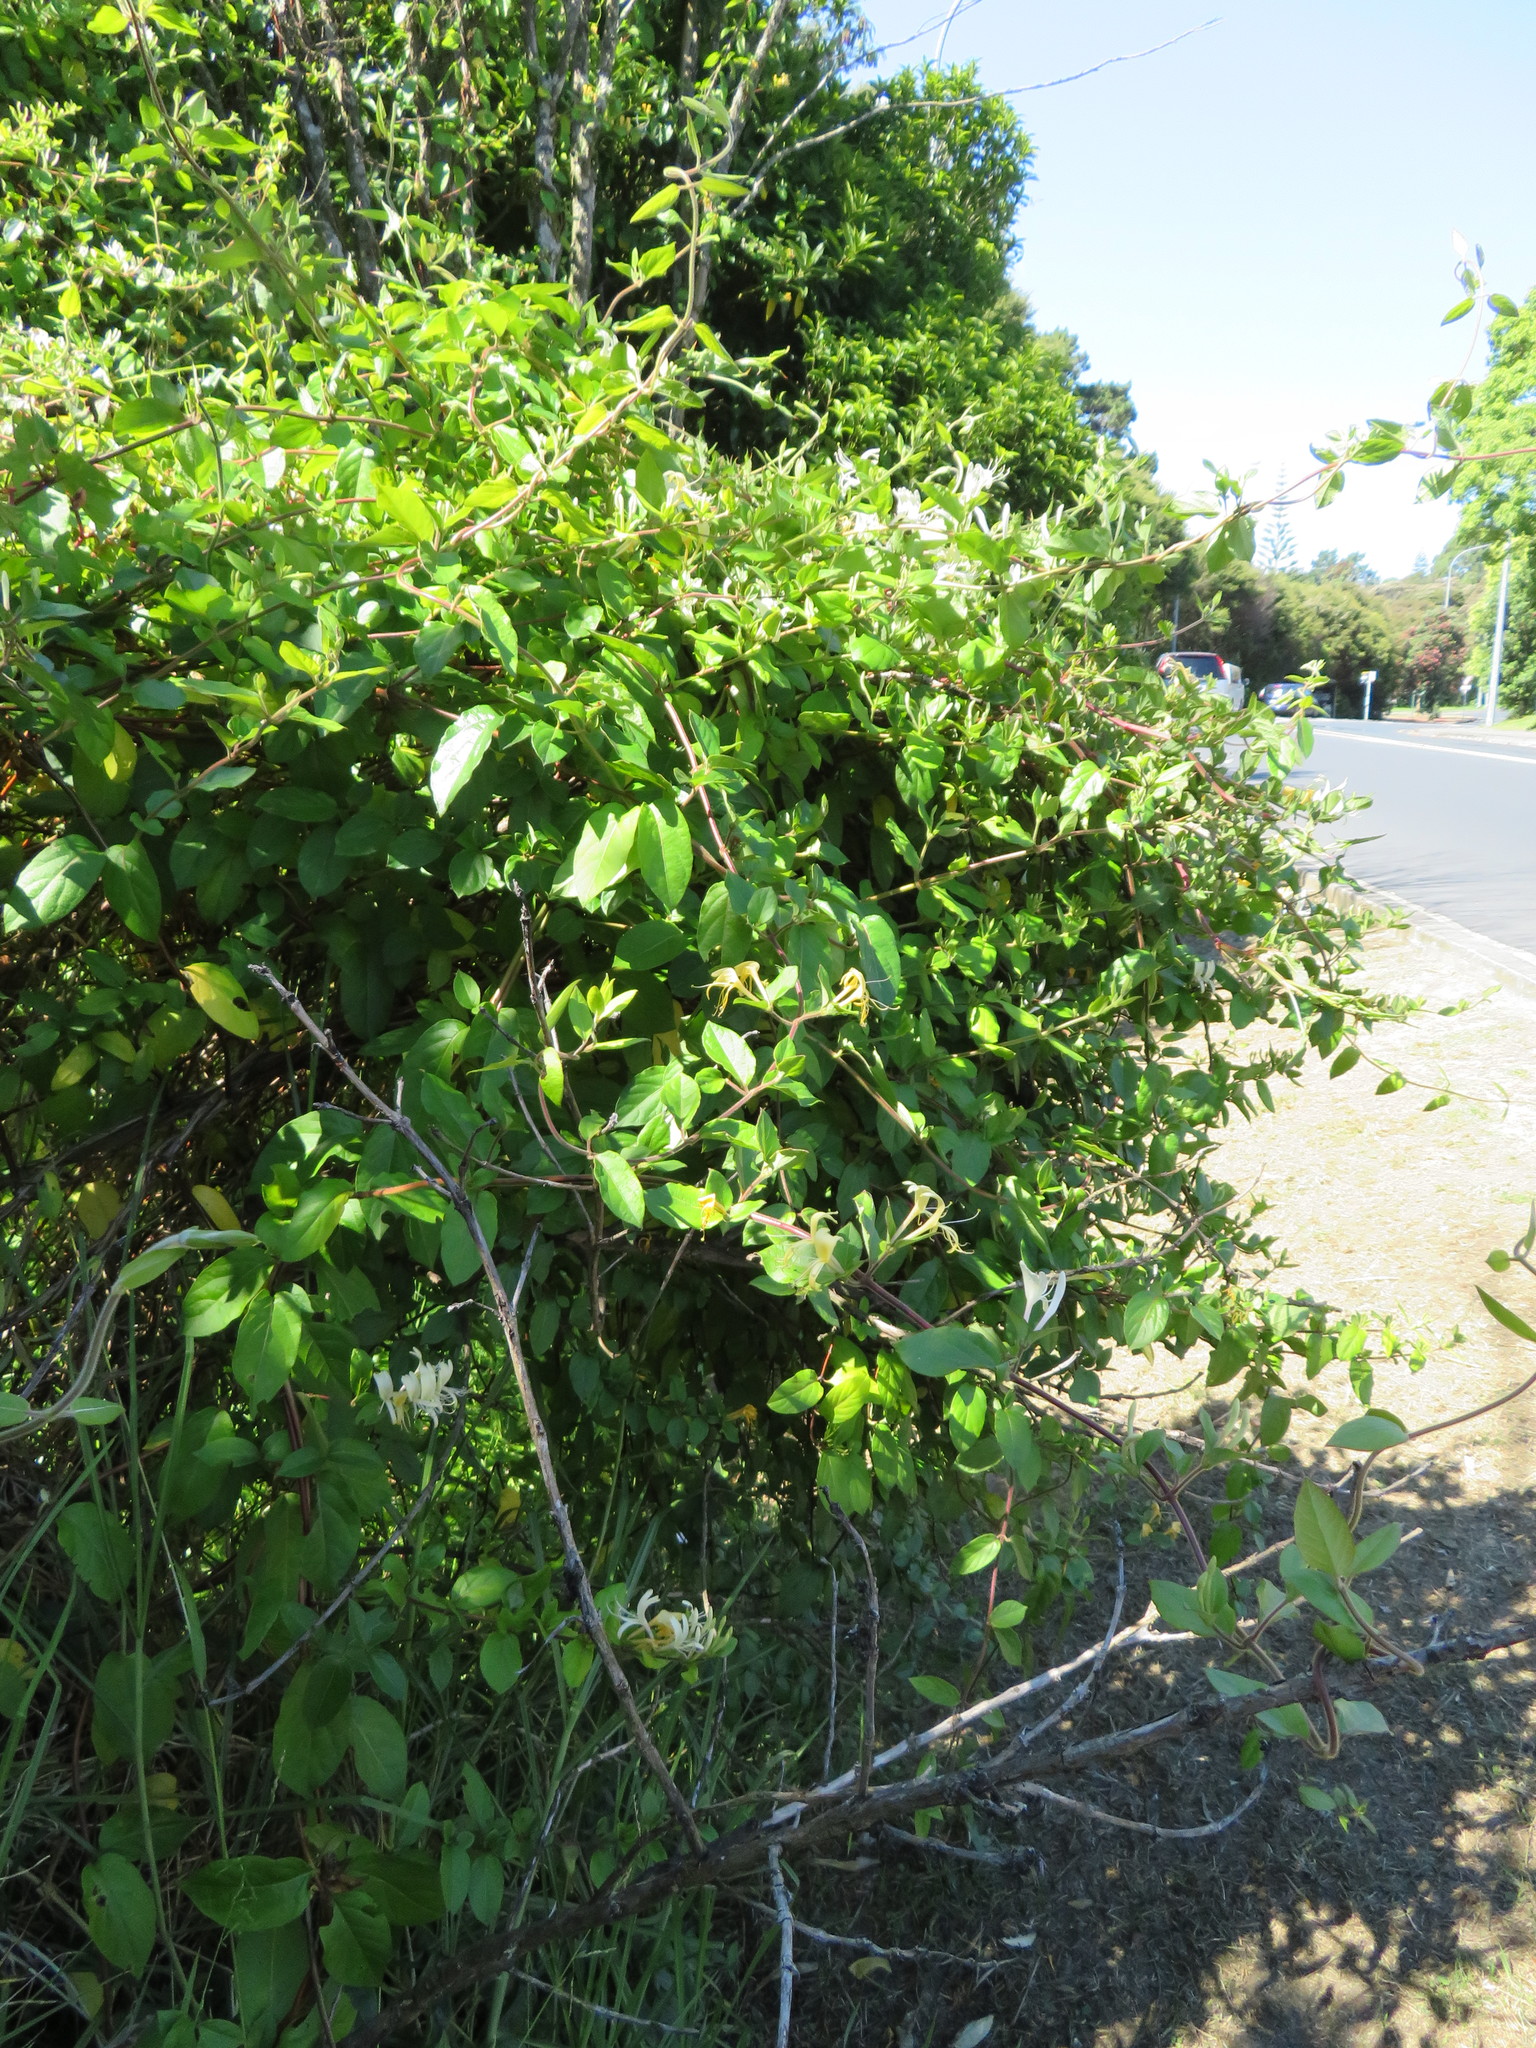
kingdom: Plantae
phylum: Tracheophyta
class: Magnoliopsida
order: Dipsacales
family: Caprifoliaceae
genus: Lonicera
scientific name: Lonicera japonica
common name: Japanese honeysuckle
